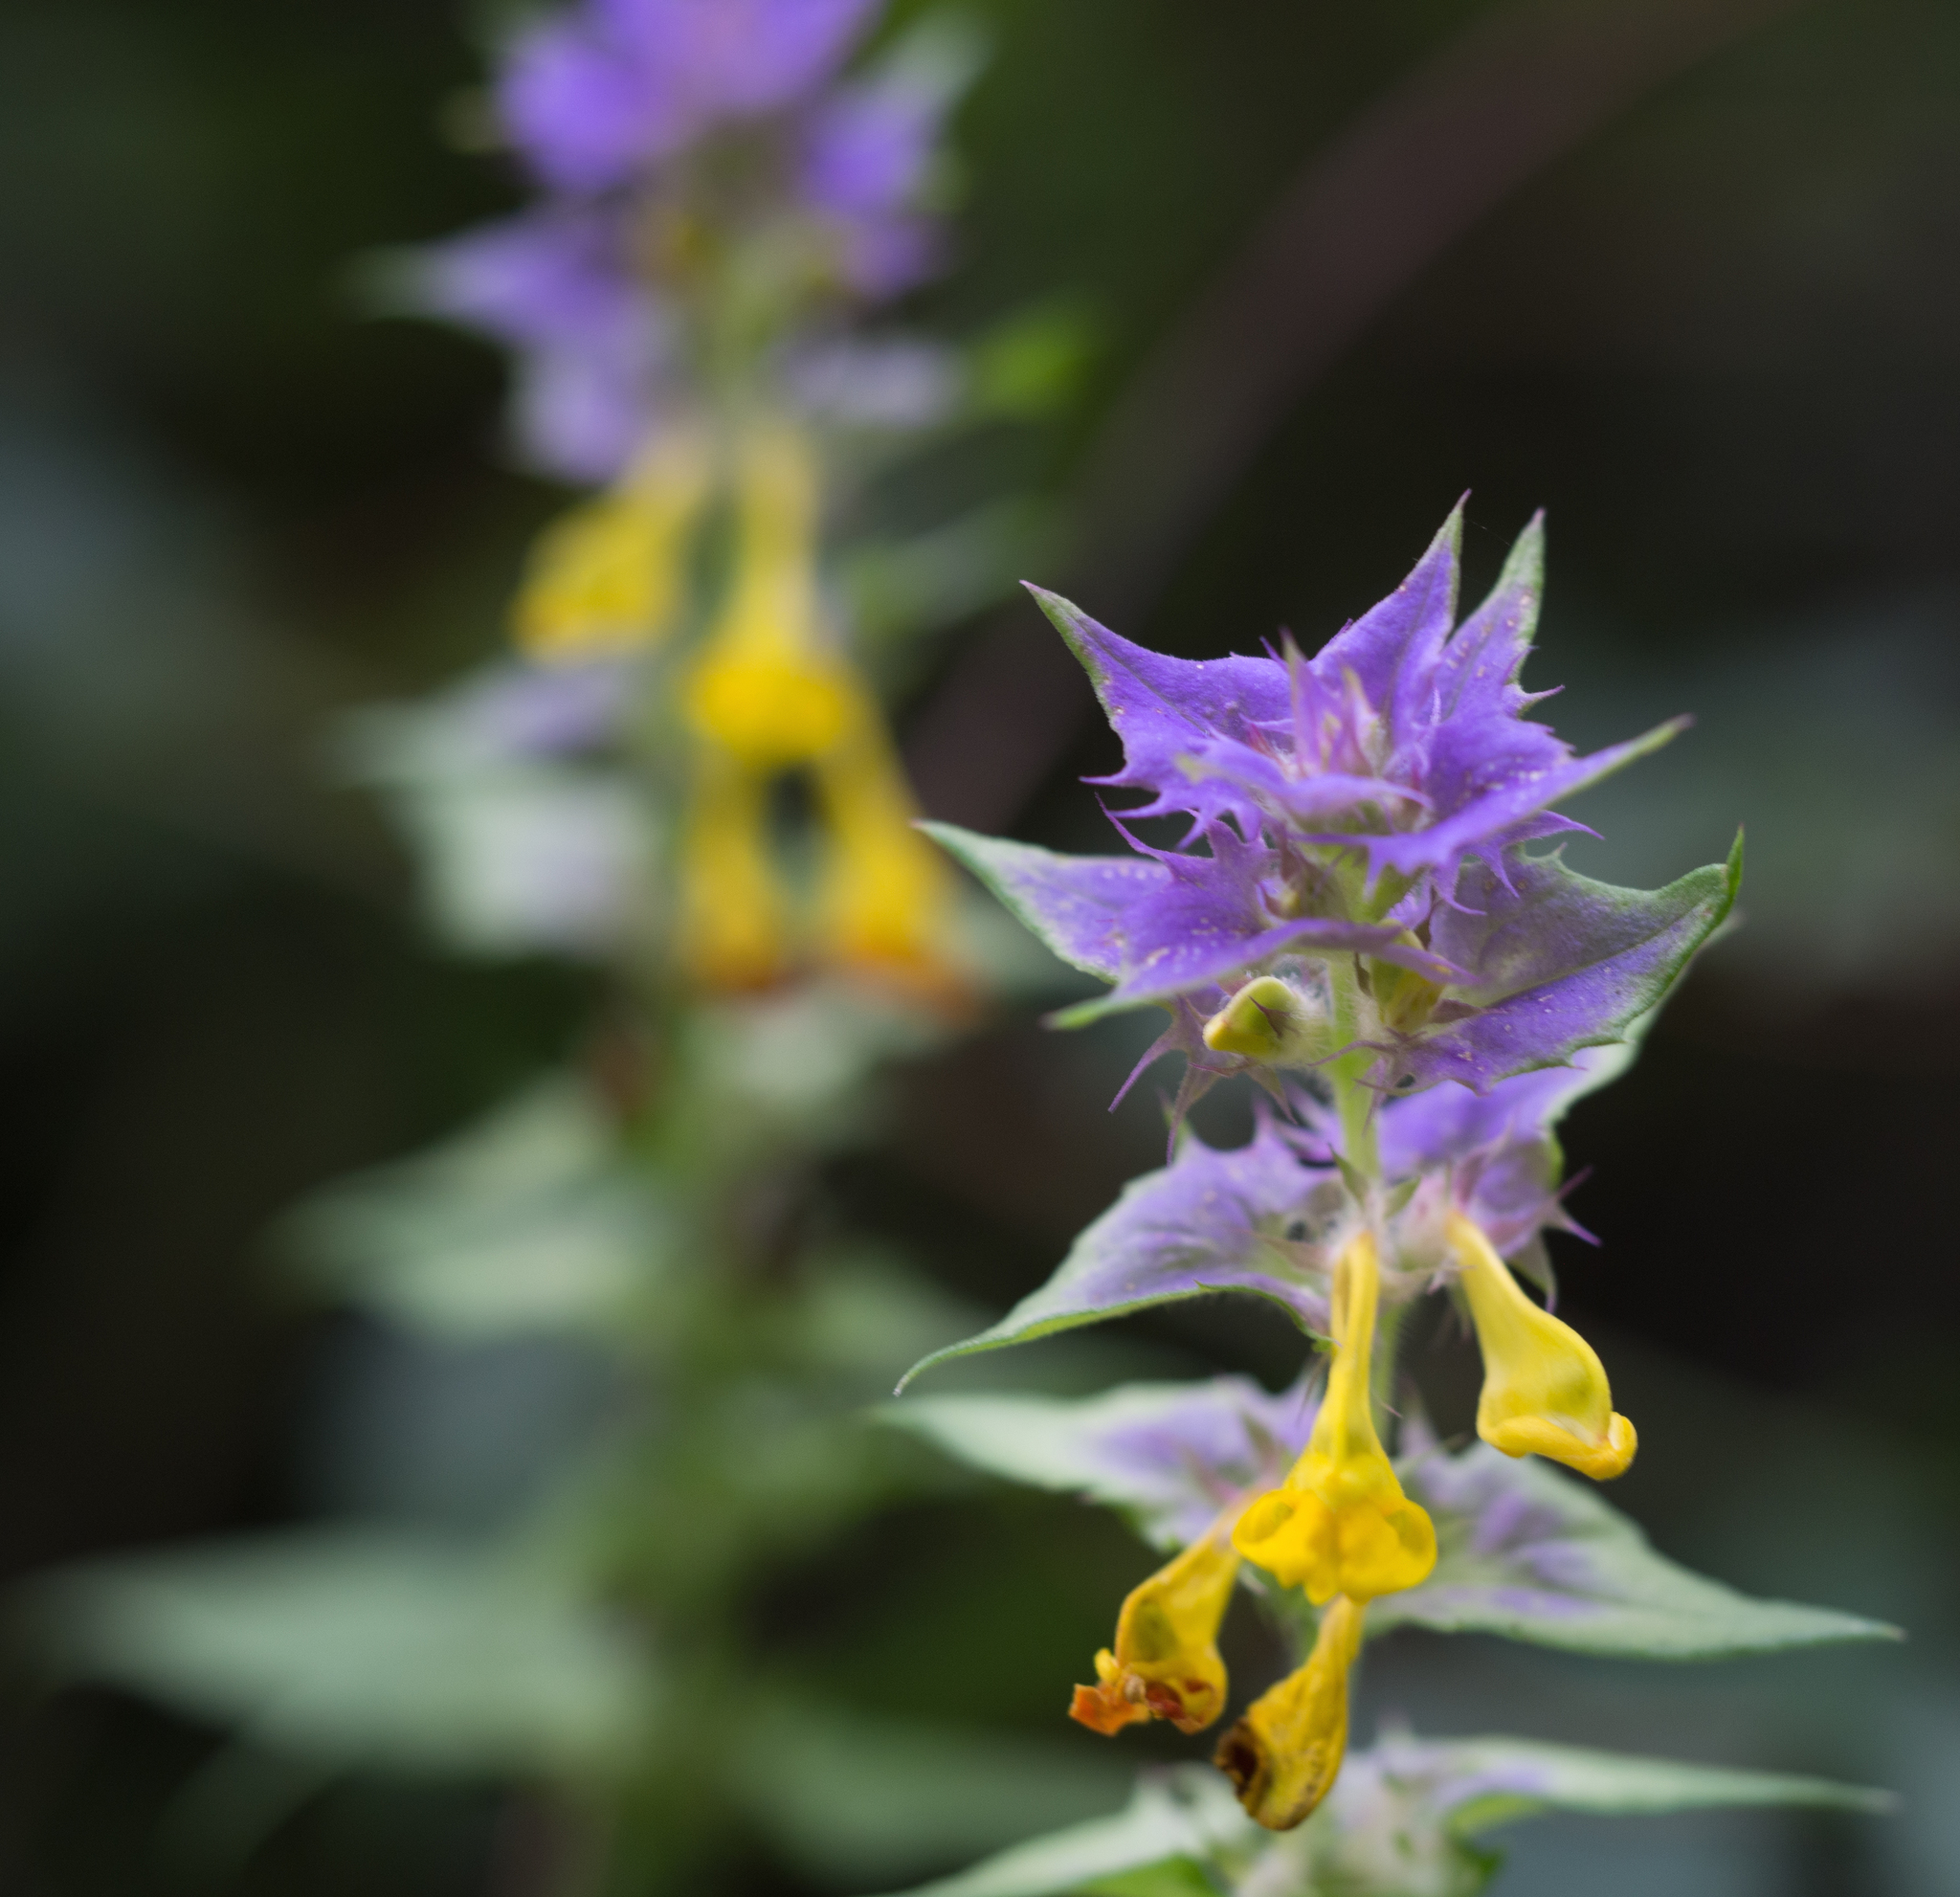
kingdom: Plantae
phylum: Tracheophyta
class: Magnoliopsida
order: Lamiales
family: Orobanchaceae
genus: Melampyrum
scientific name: Melampyrum nemorosum
